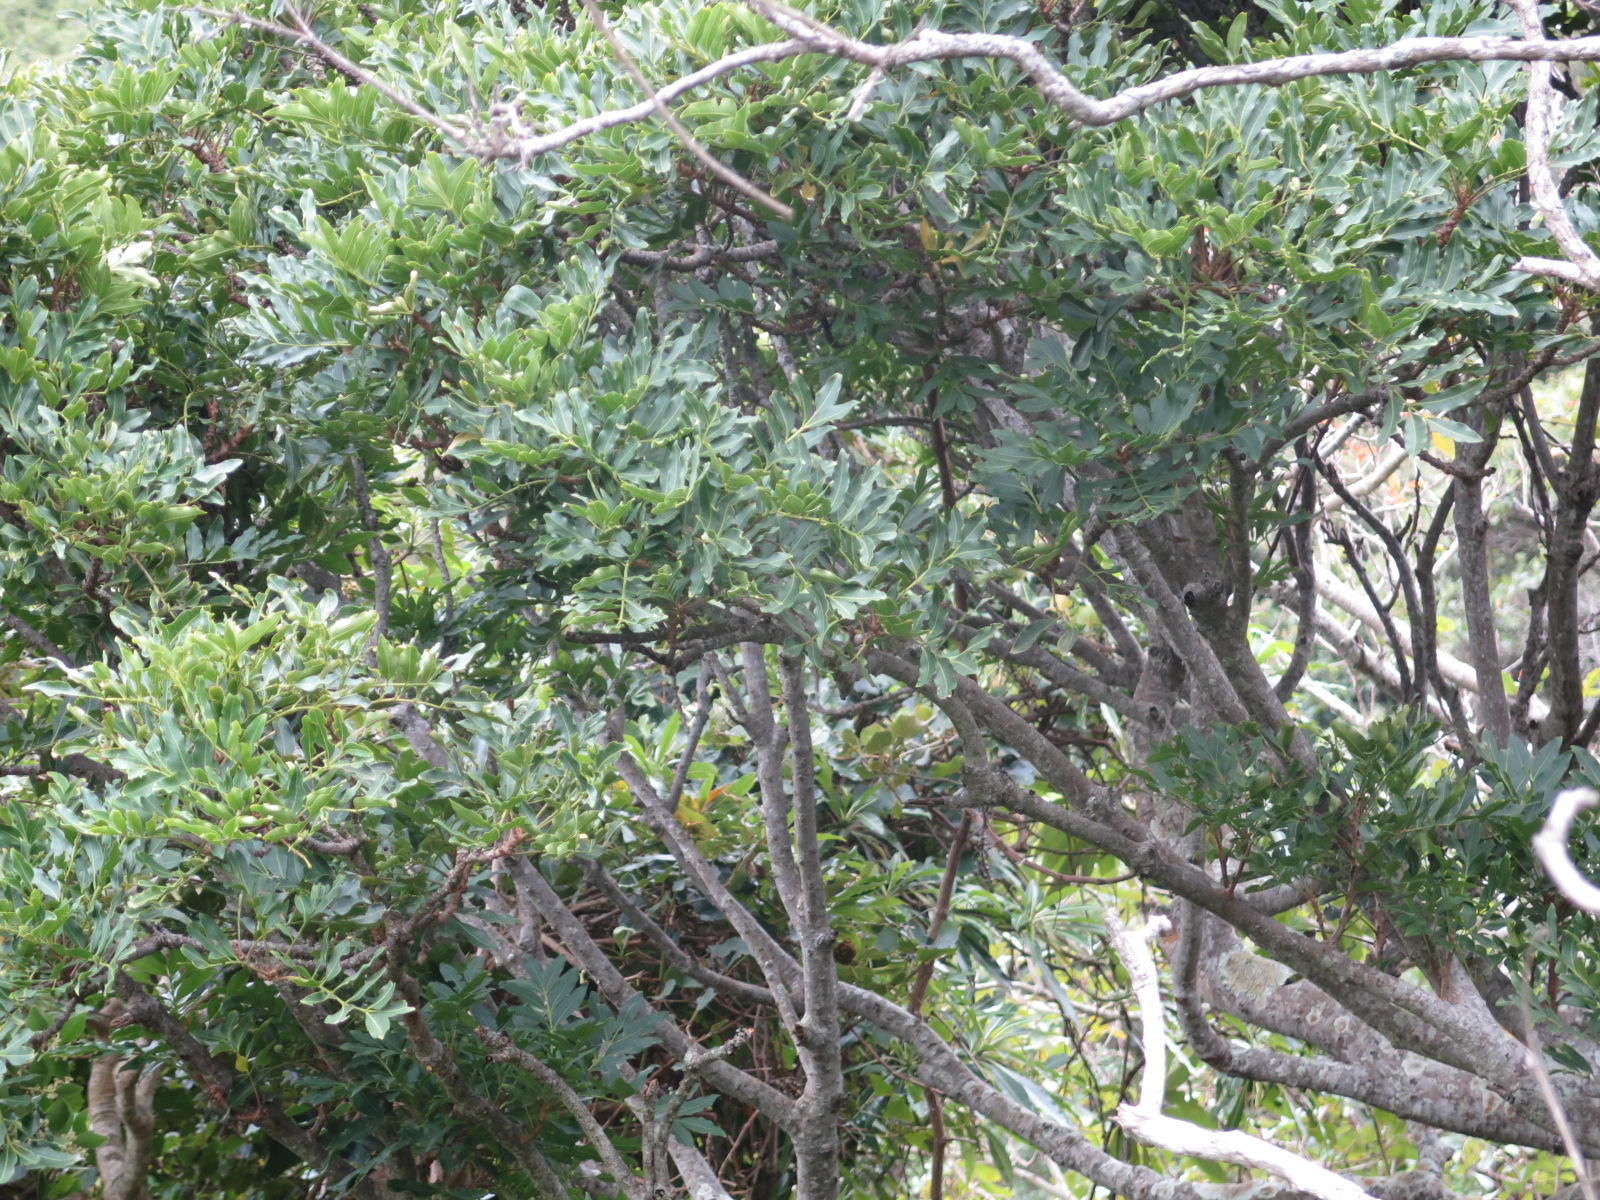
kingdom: Plantae
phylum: Tracheophyta
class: Magnoliopsida
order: Sapindales
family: Meliaceae
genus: Ekebergia
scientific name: Ekebergia capensis
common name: Cape-ash
